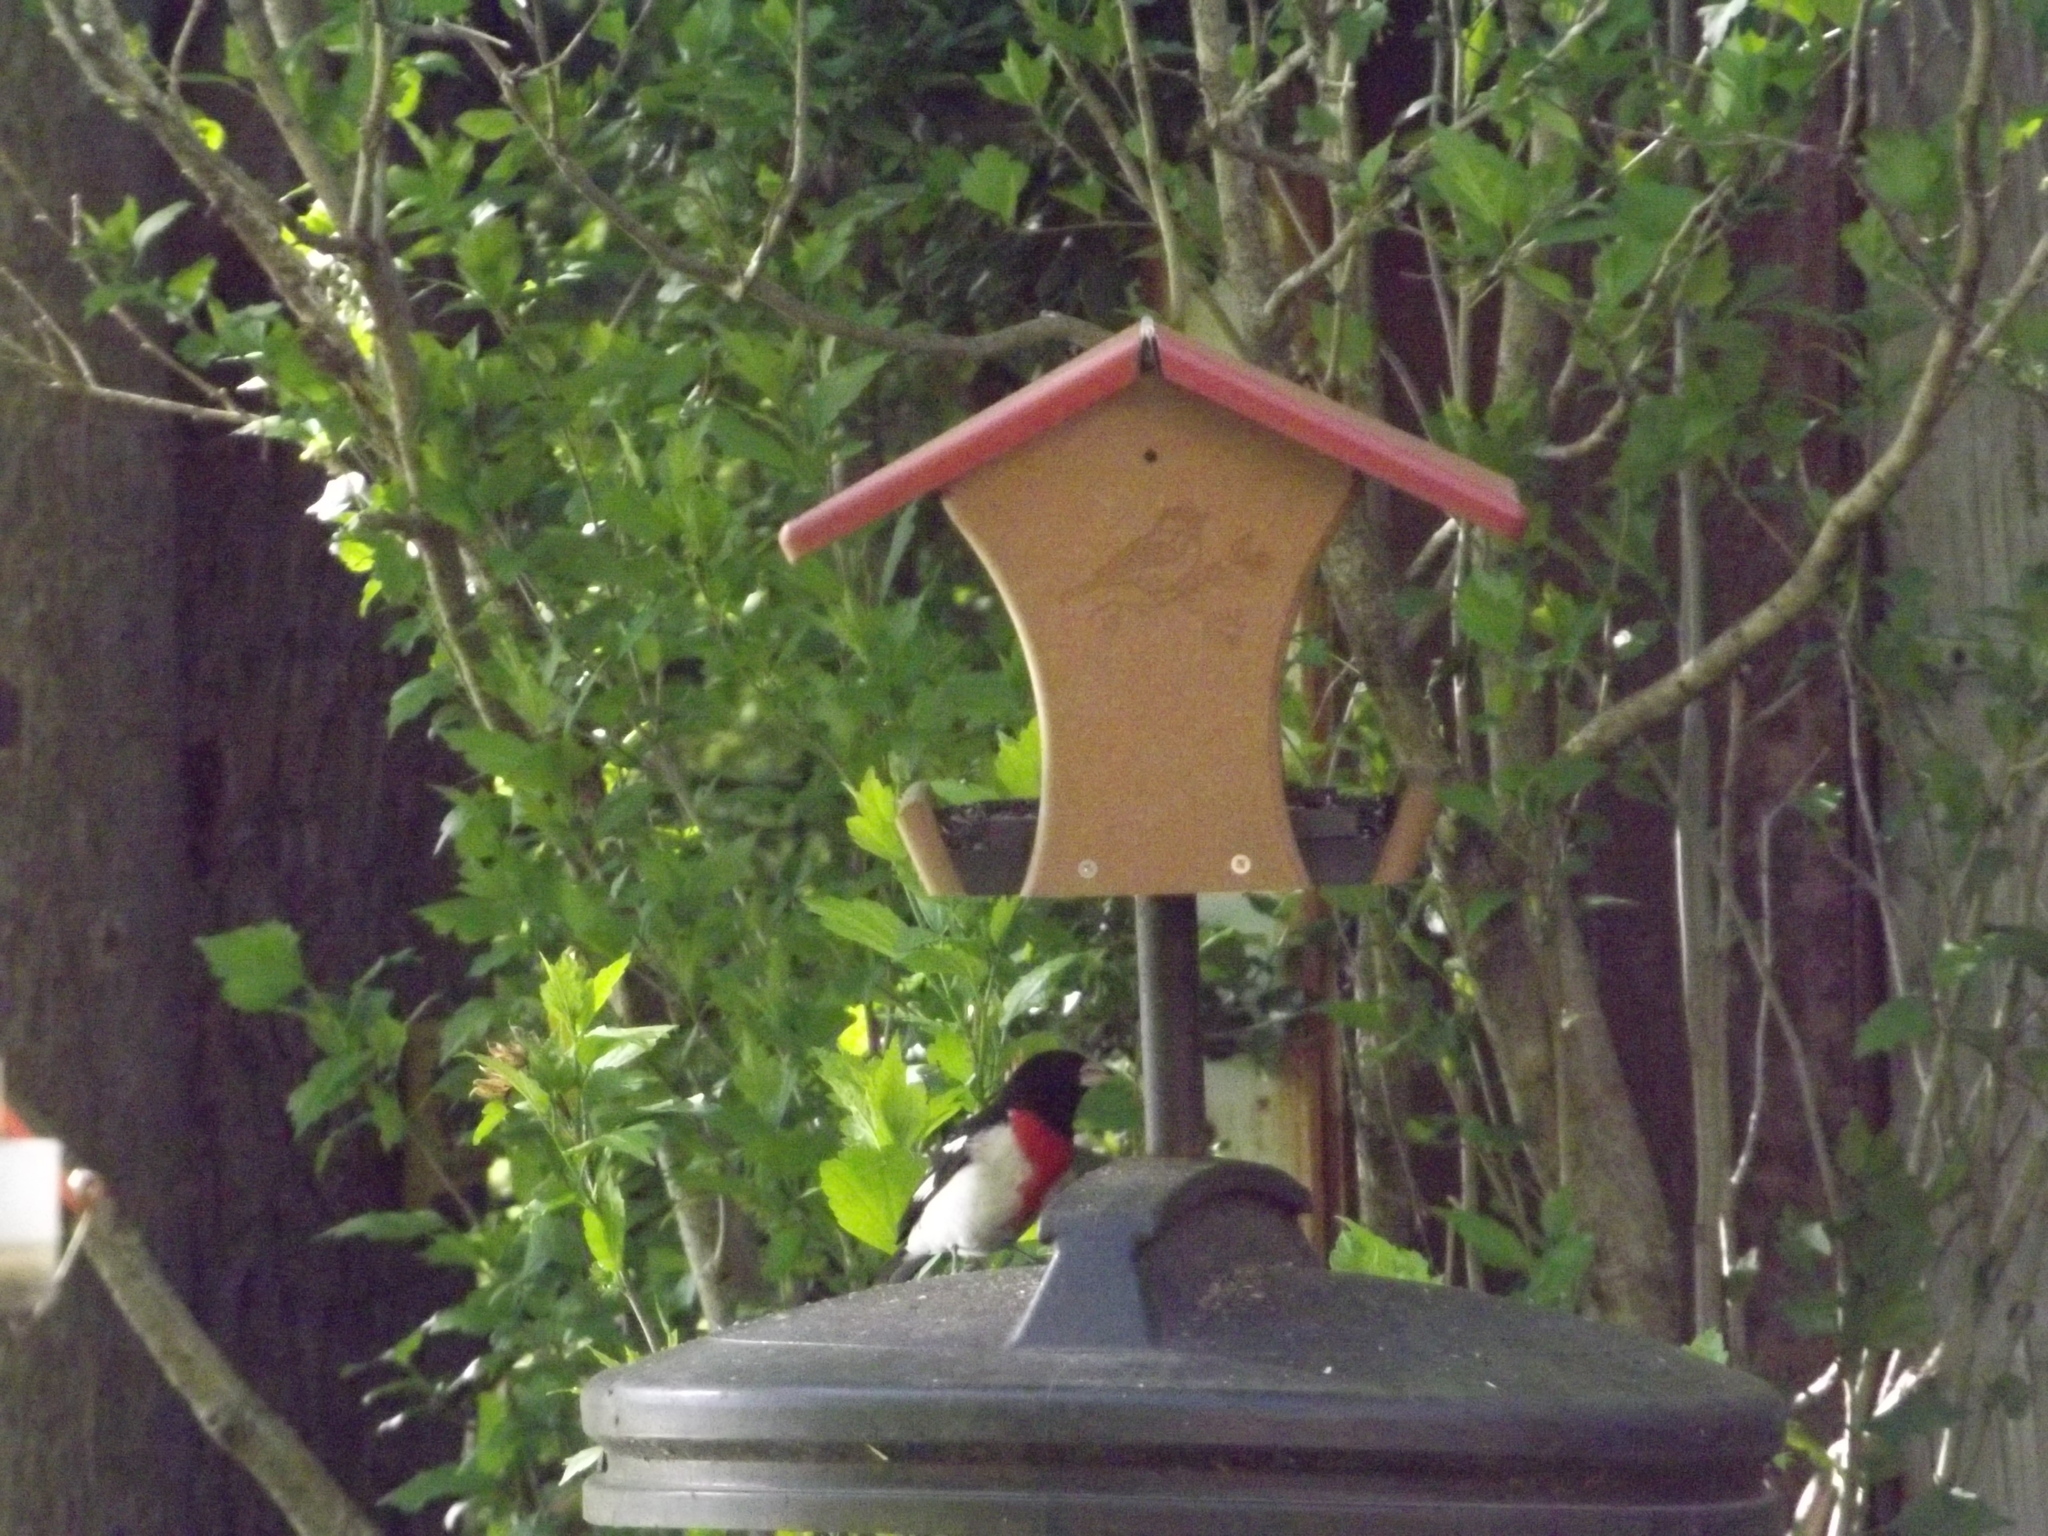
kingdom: Animalia
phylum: Chordata
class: Aves
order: Passeriformes
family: Cardinalidae
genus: Pheucticus
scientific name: Pheucticus ludovicianus
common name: Rose-breasted grosbeak
